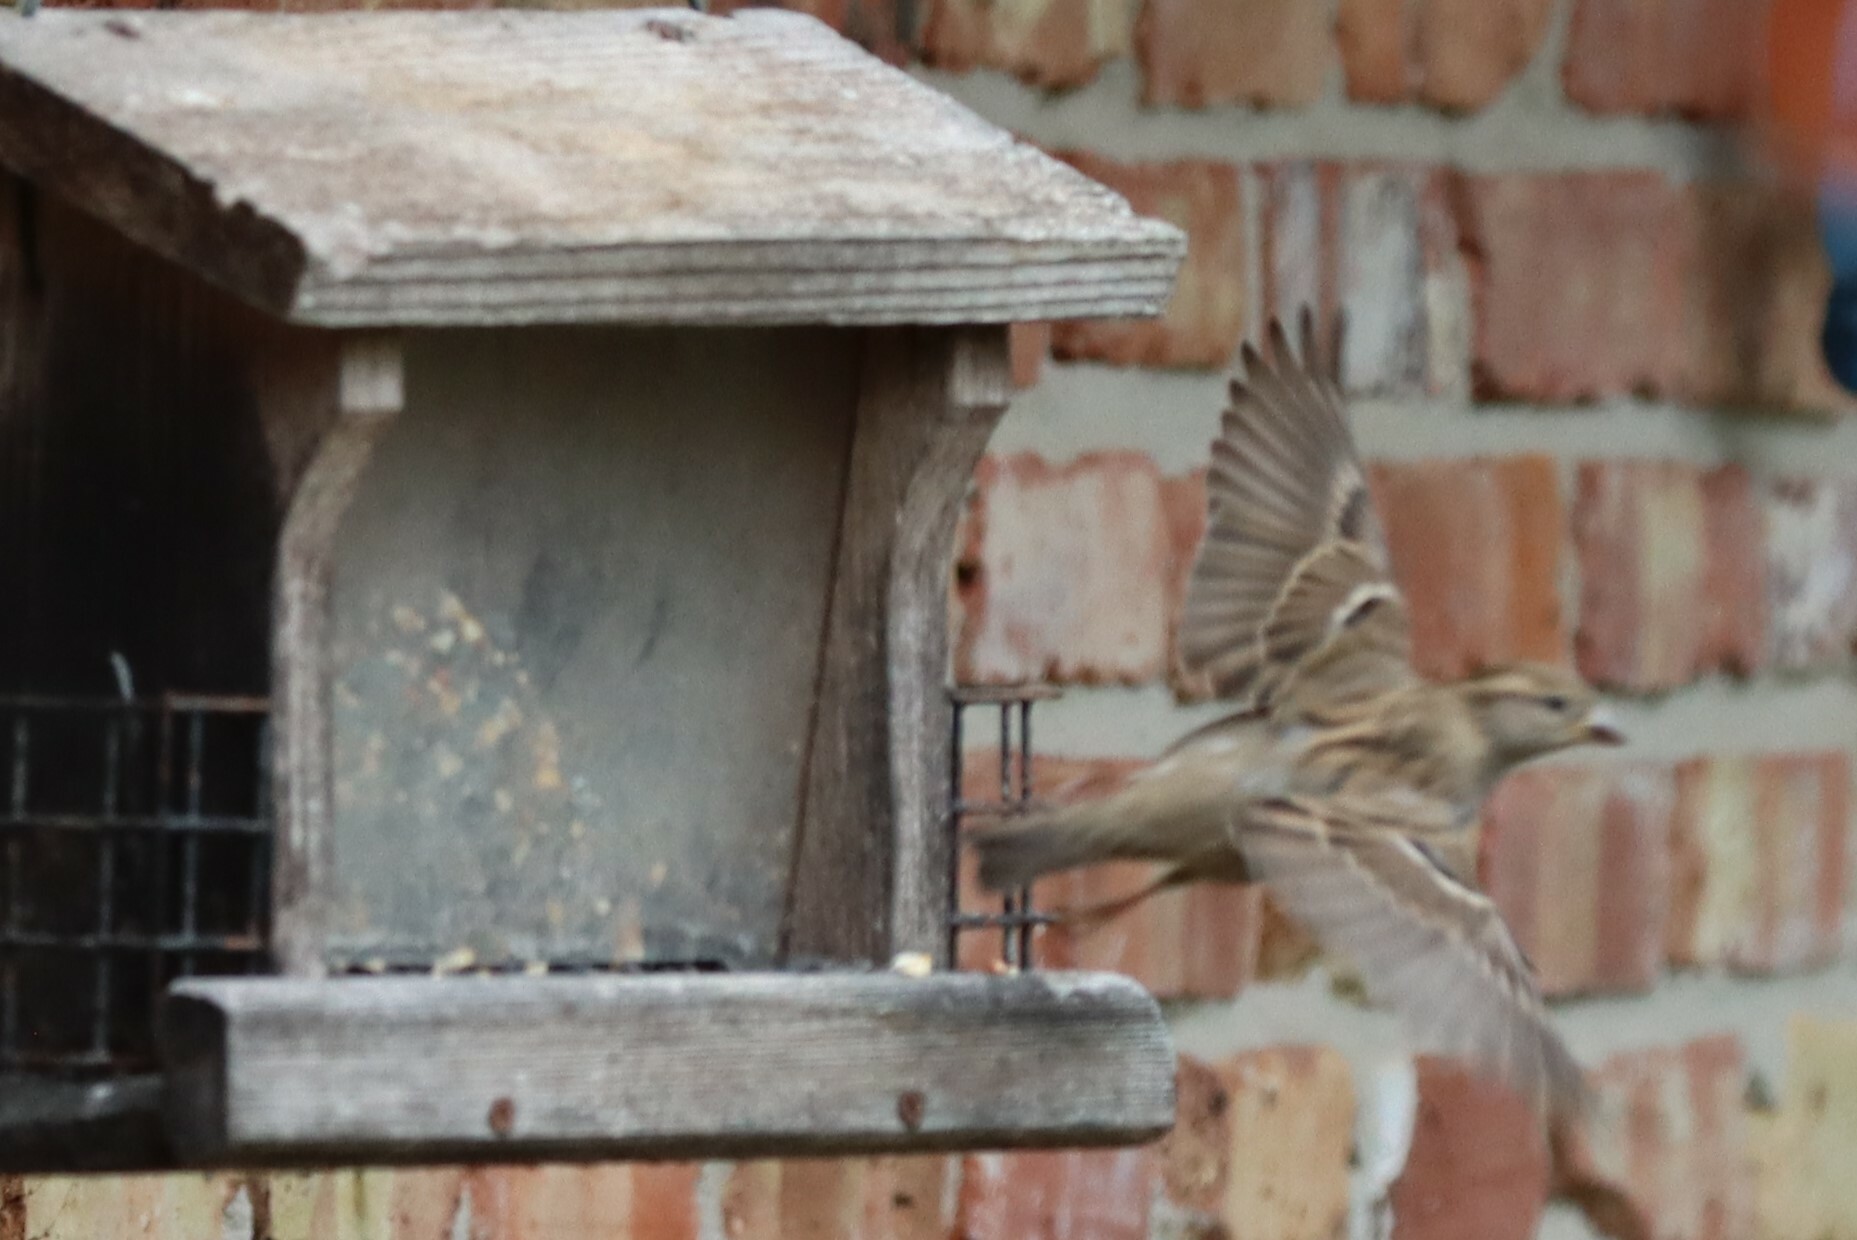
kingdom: Animalia
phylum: Chordata
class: Aves
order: Passeriformes
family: Passeridae
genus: Passer
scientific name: Passer domesticus
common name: House sparrow
